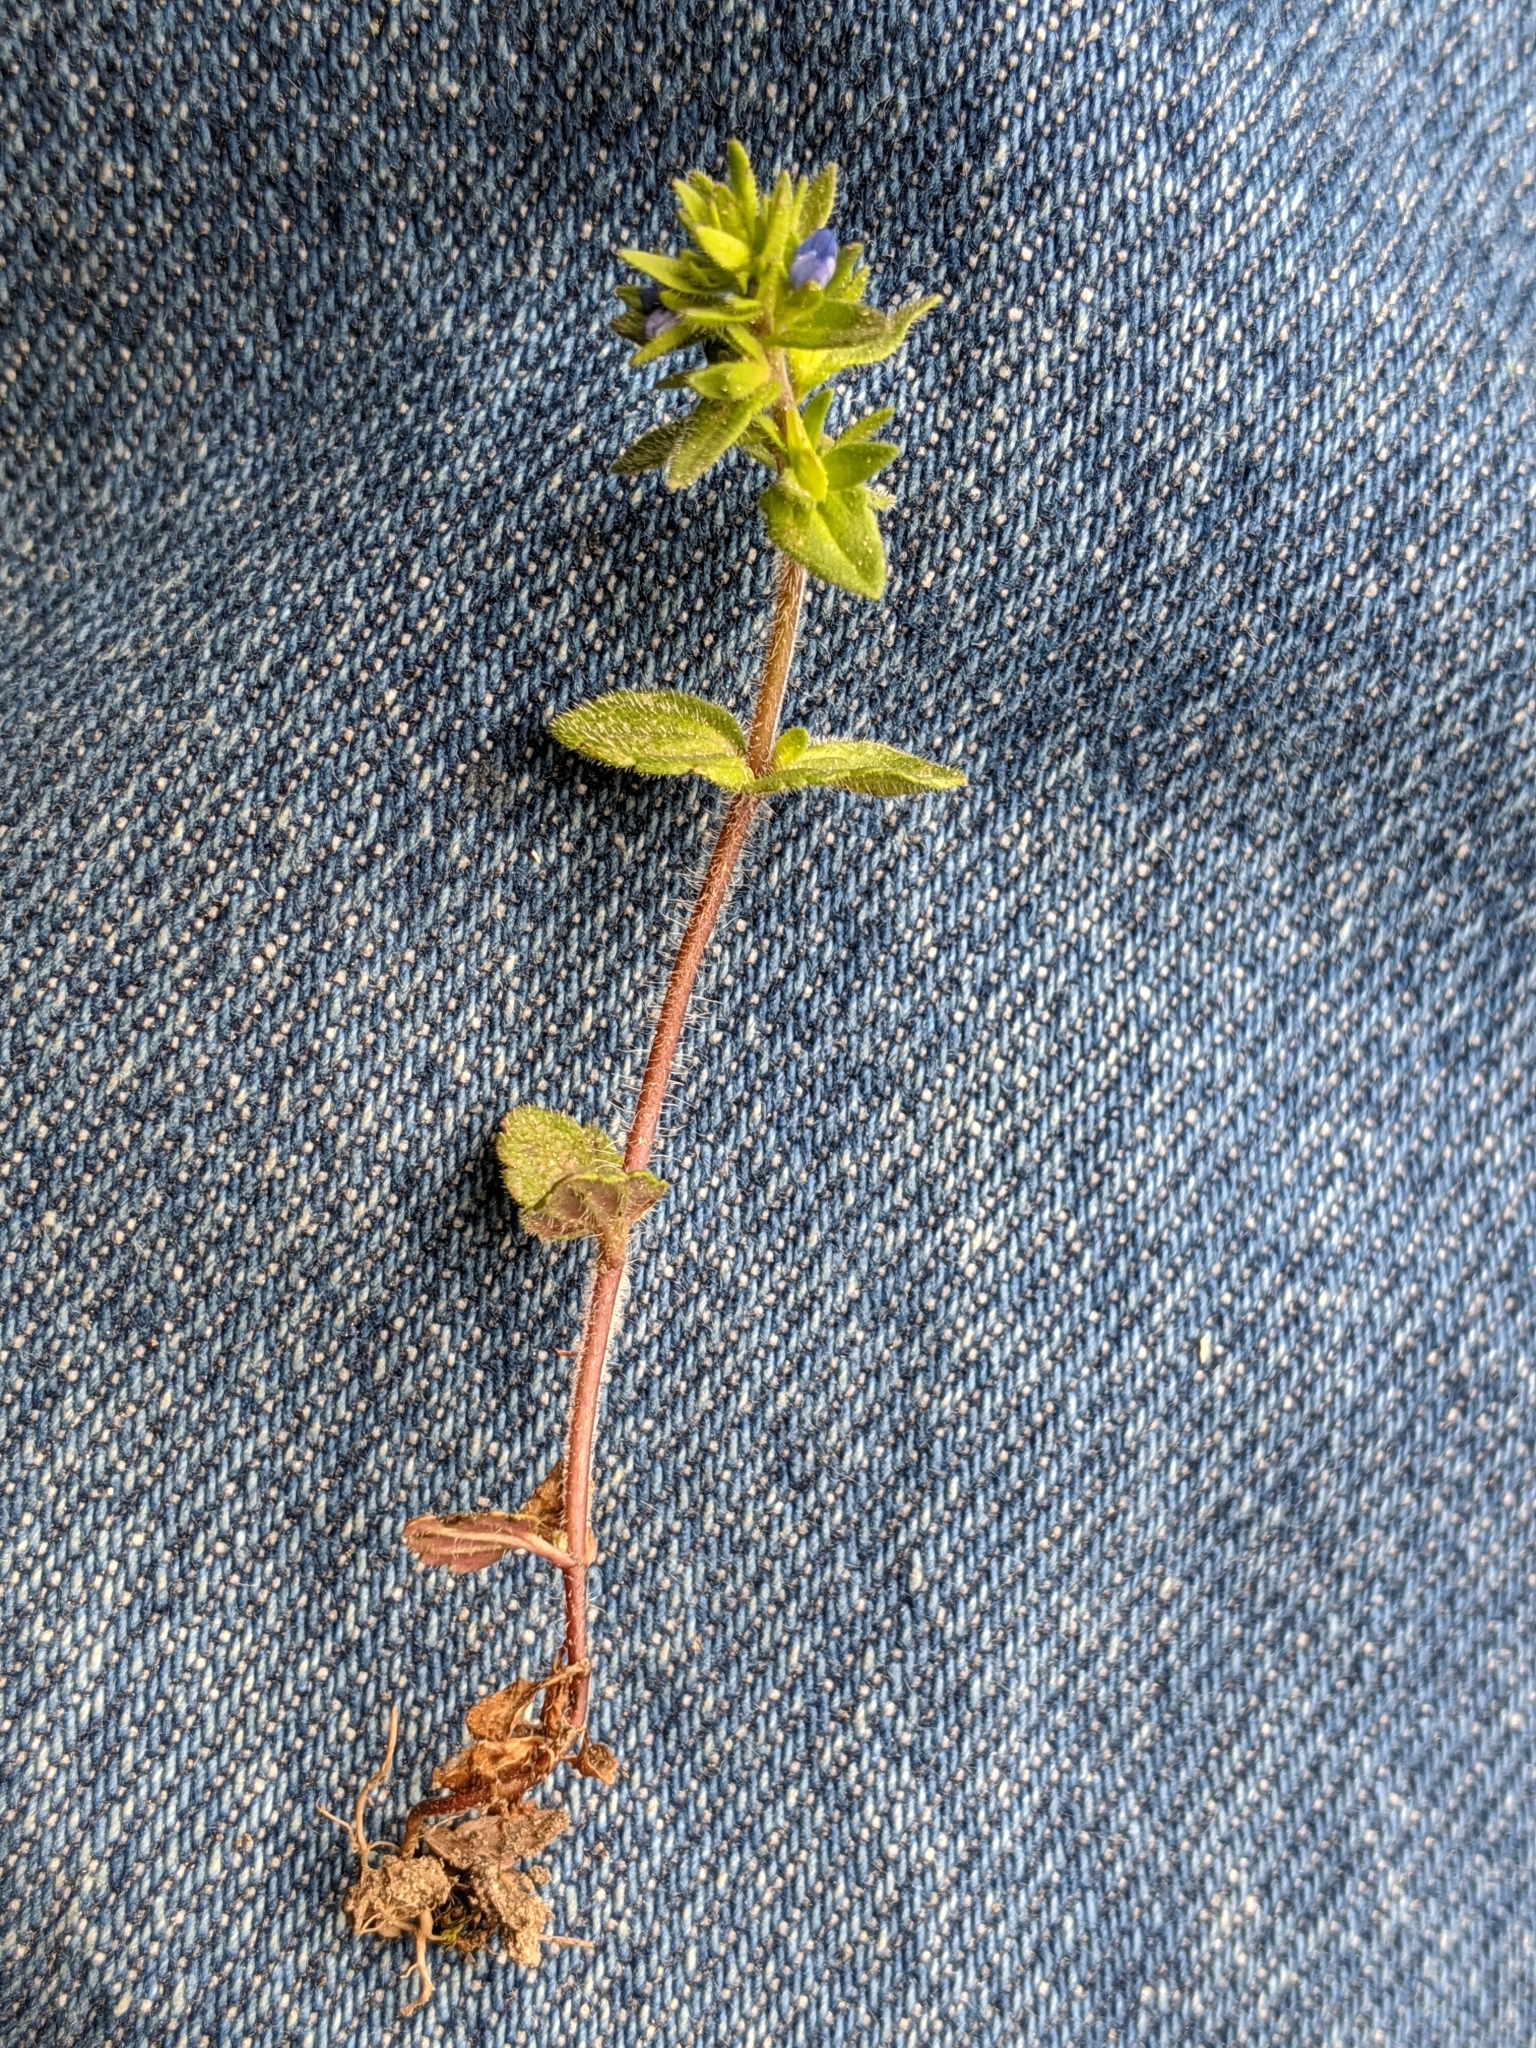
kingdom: Plantae
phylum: Tracheophyta
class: Magnoliopsida
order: Lamiales
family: Plantaginaceae
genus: Veronica
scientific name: Veronica arvensis
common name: Corn speedwell
